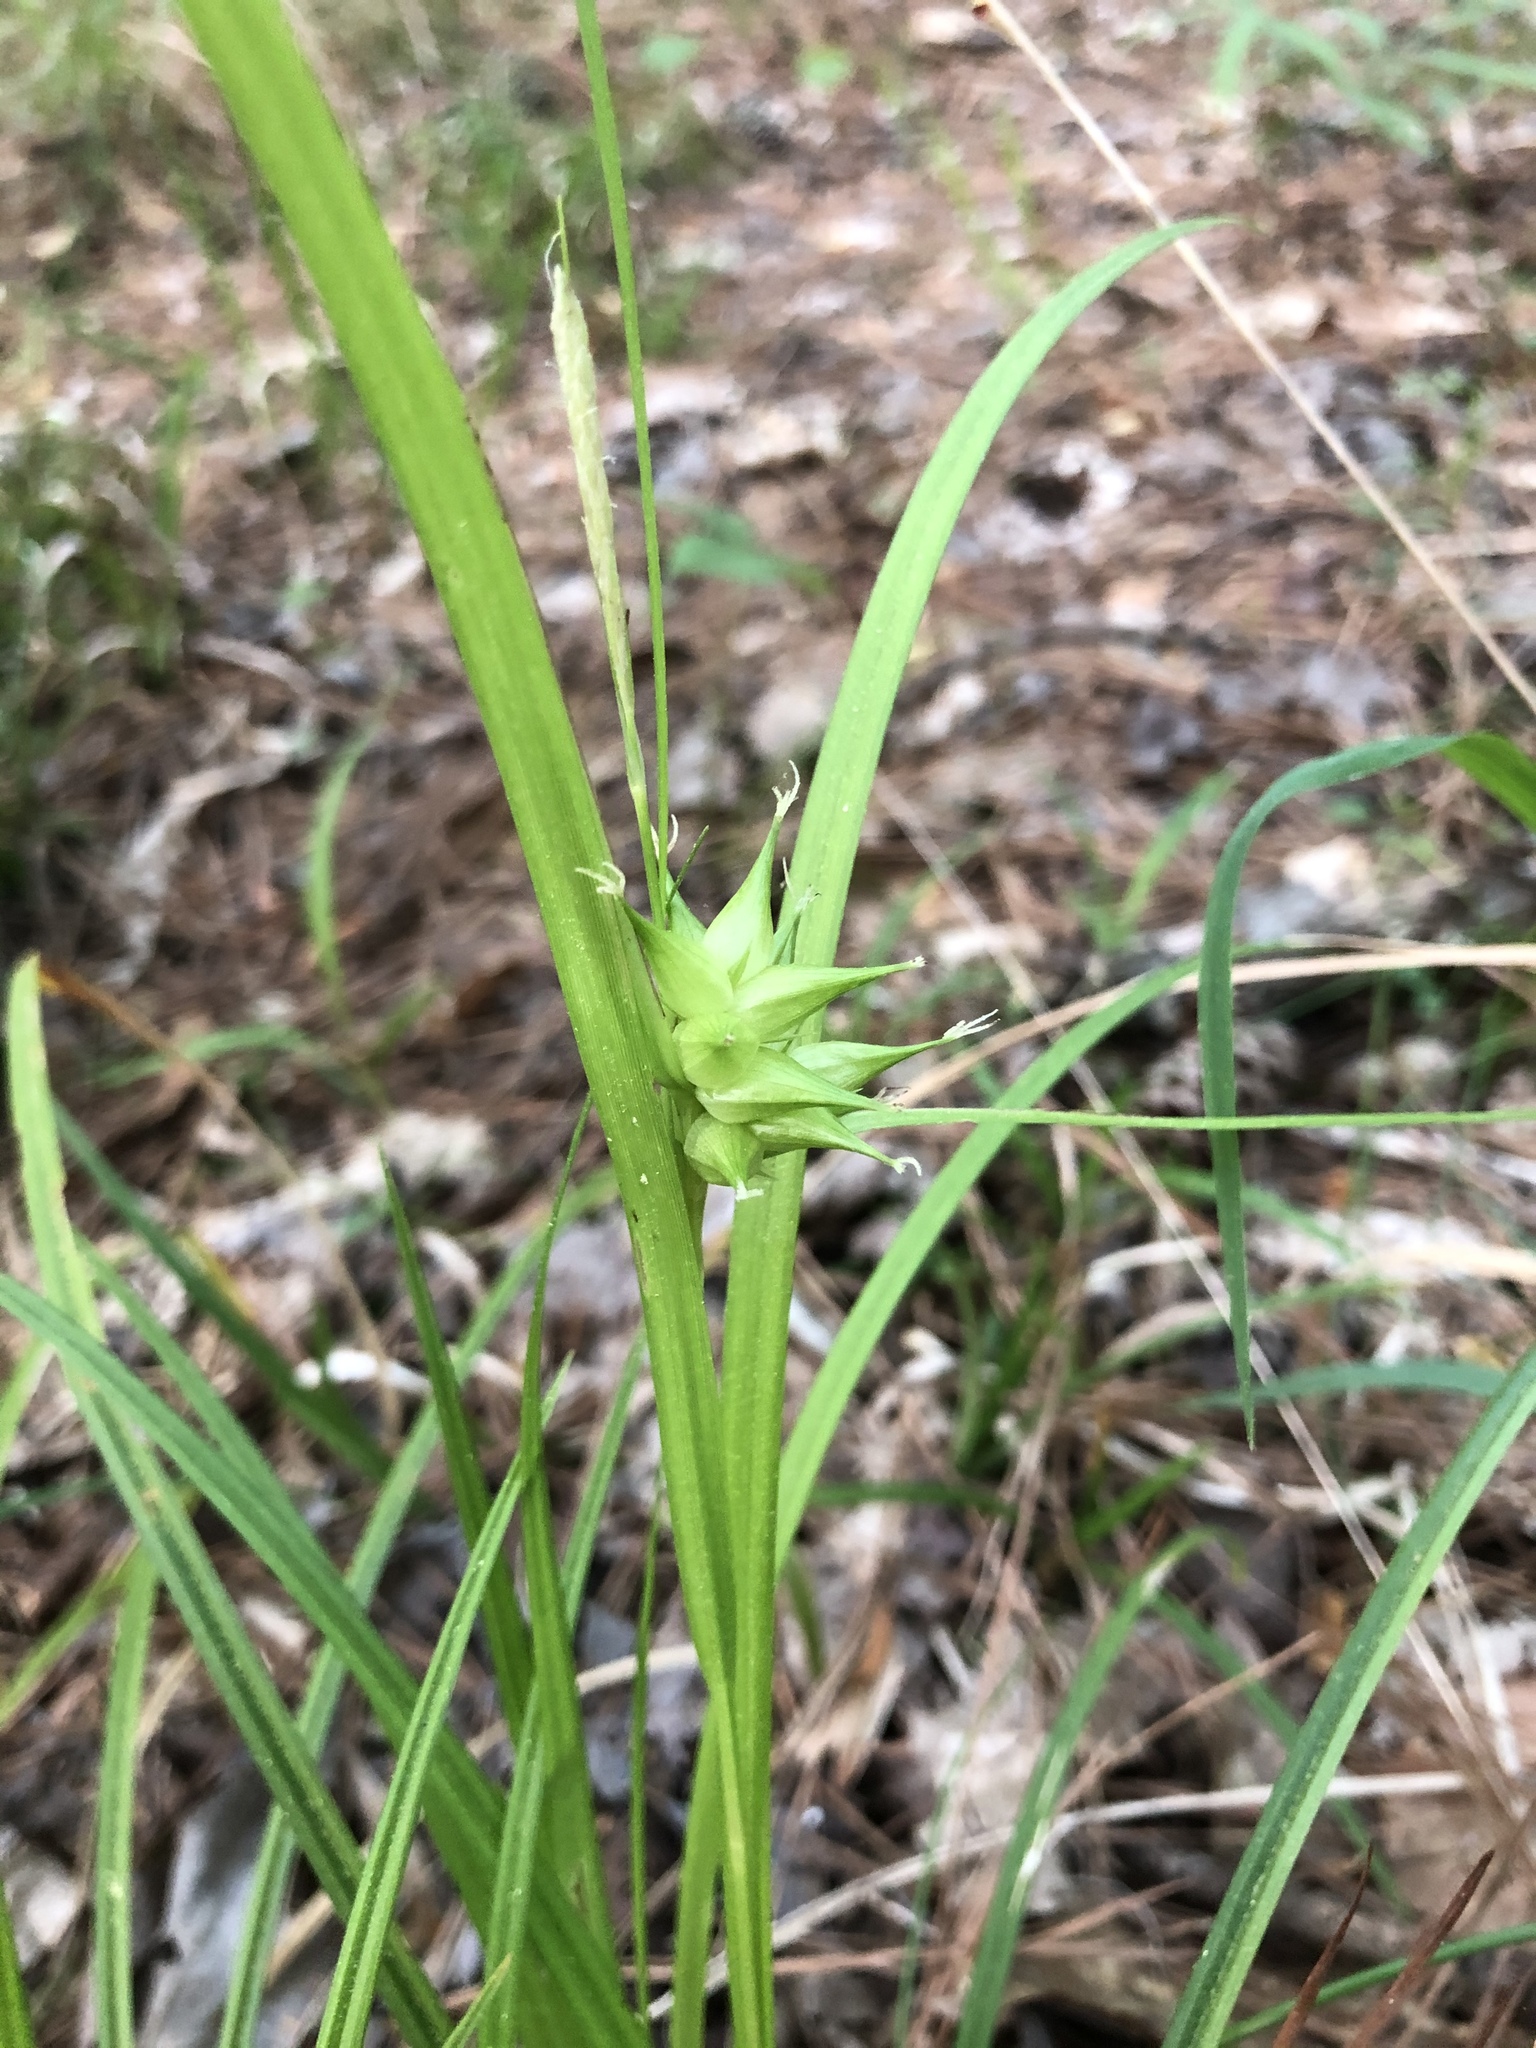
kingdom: Plantae
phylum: Tracheophyta
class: Liliopsida
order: Poales
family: Cyperaceae
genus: Carex
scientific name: Carex intumescens
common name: Greater bladder sedge
